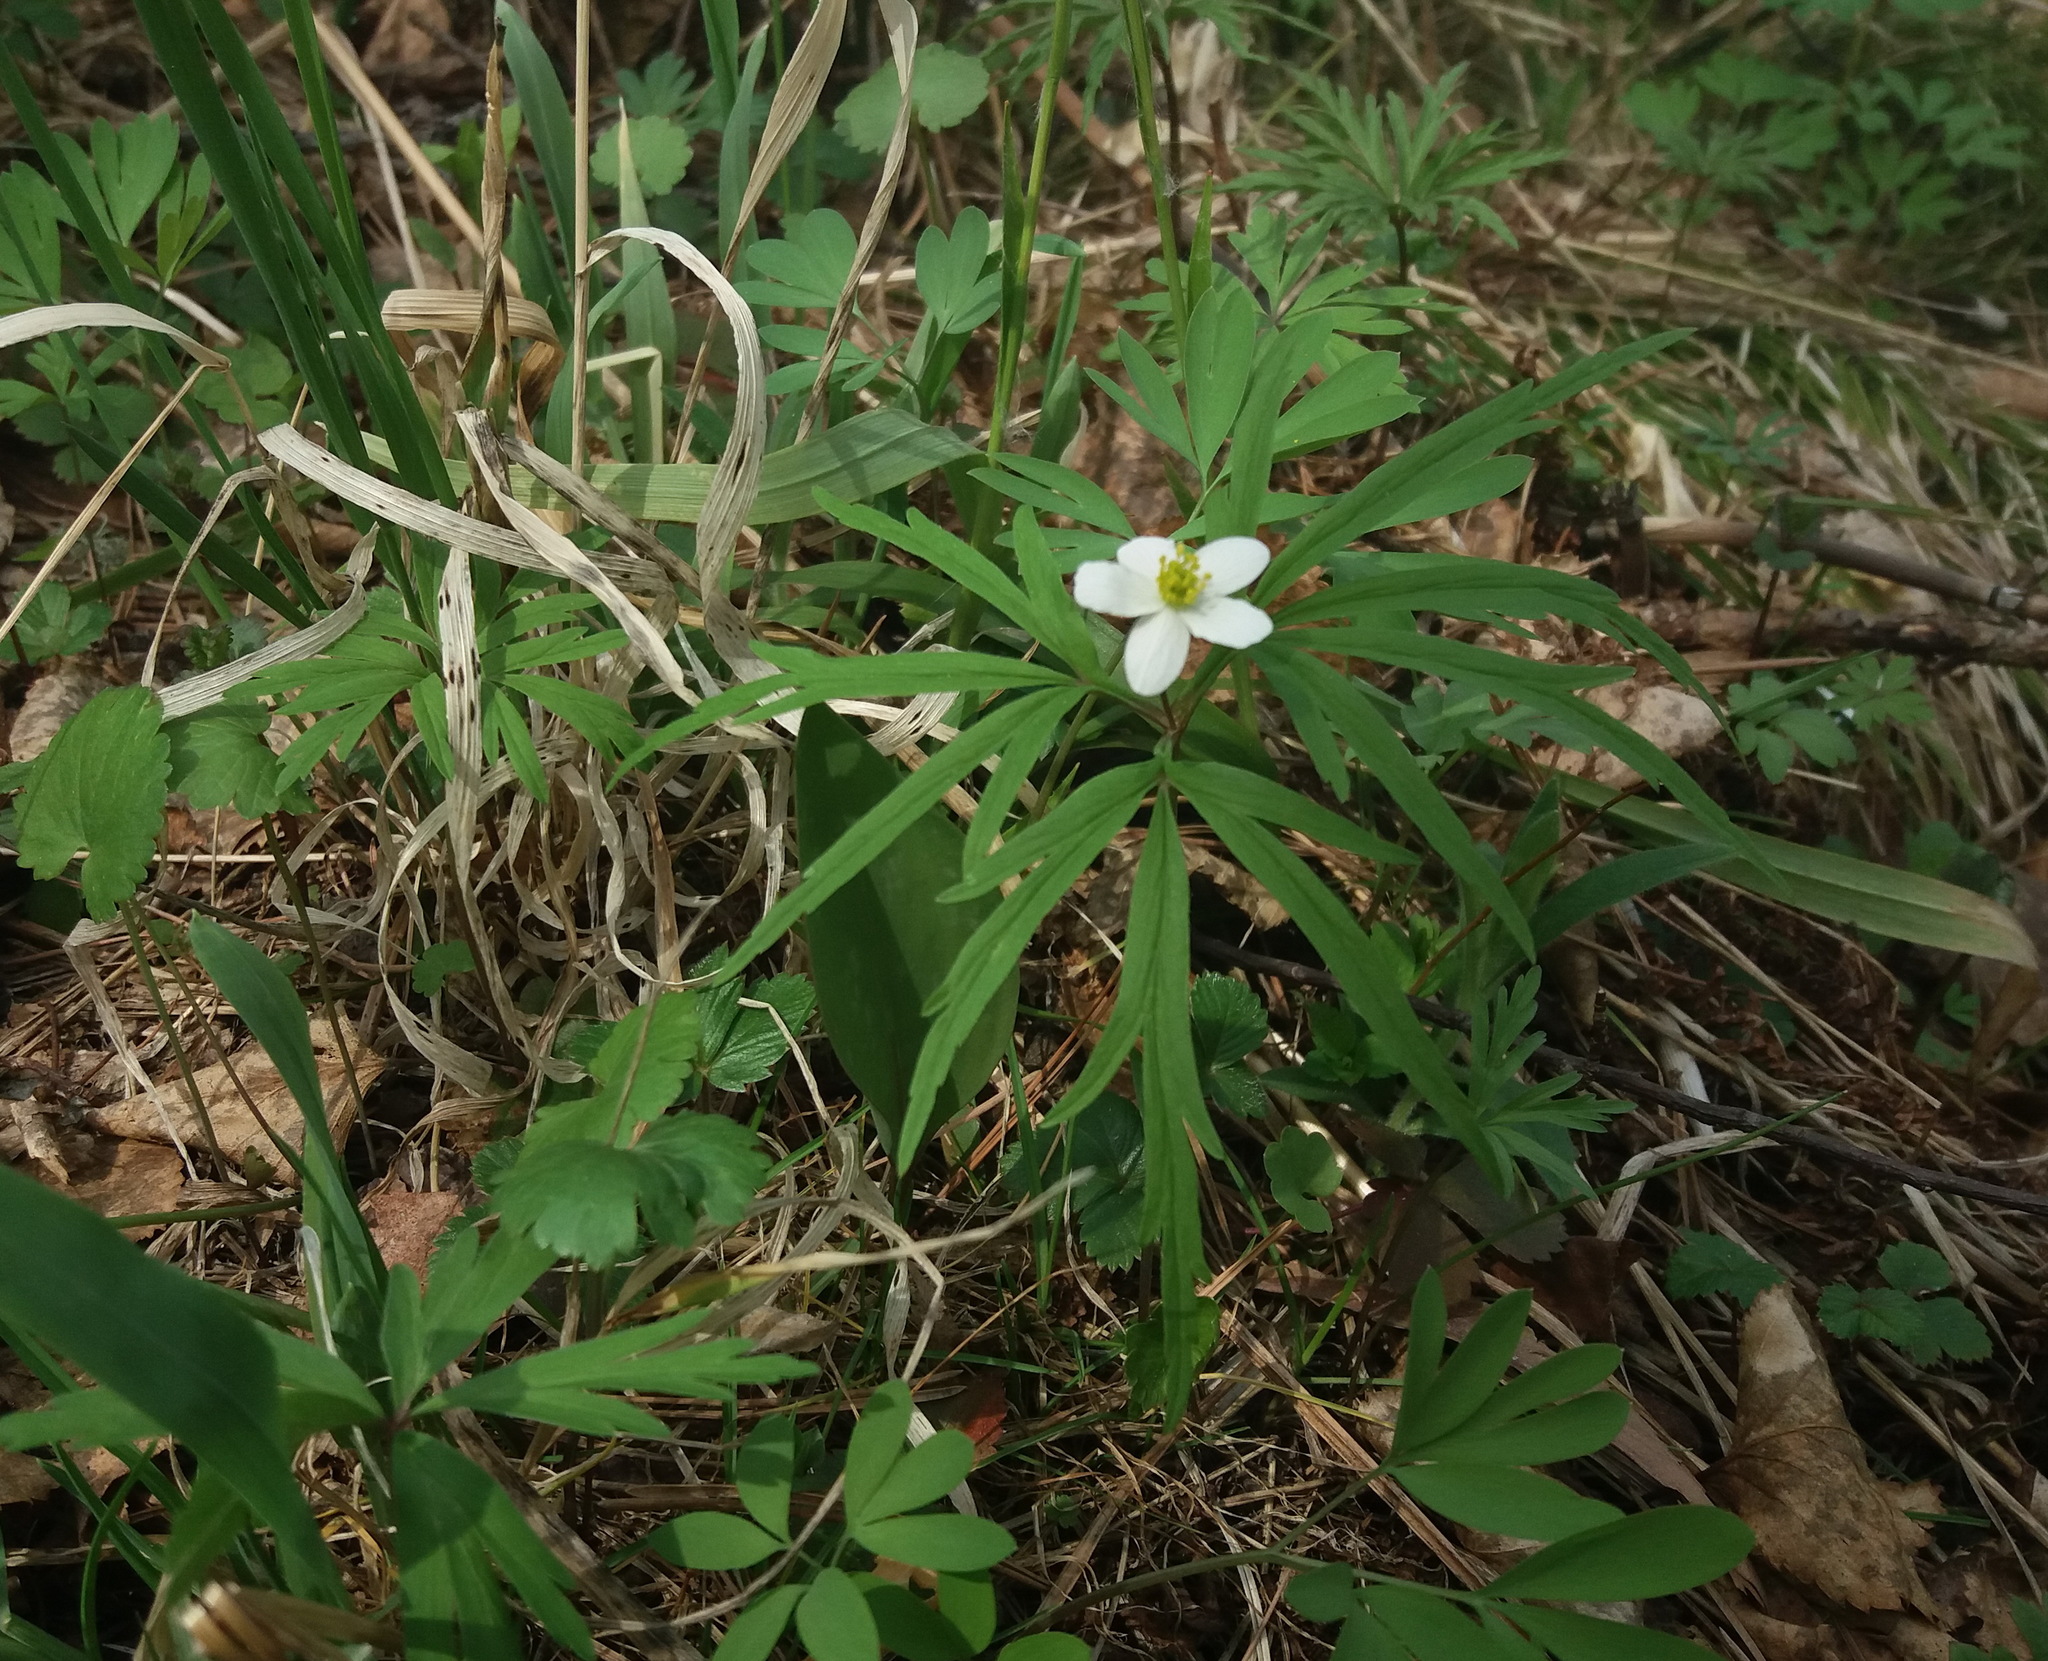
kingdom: Plantae
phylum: Tracheophyta
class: Magnoliopsida
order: Ranunculales
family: Ranunculaceae
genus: Anemone
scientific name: Anemone caerulea
